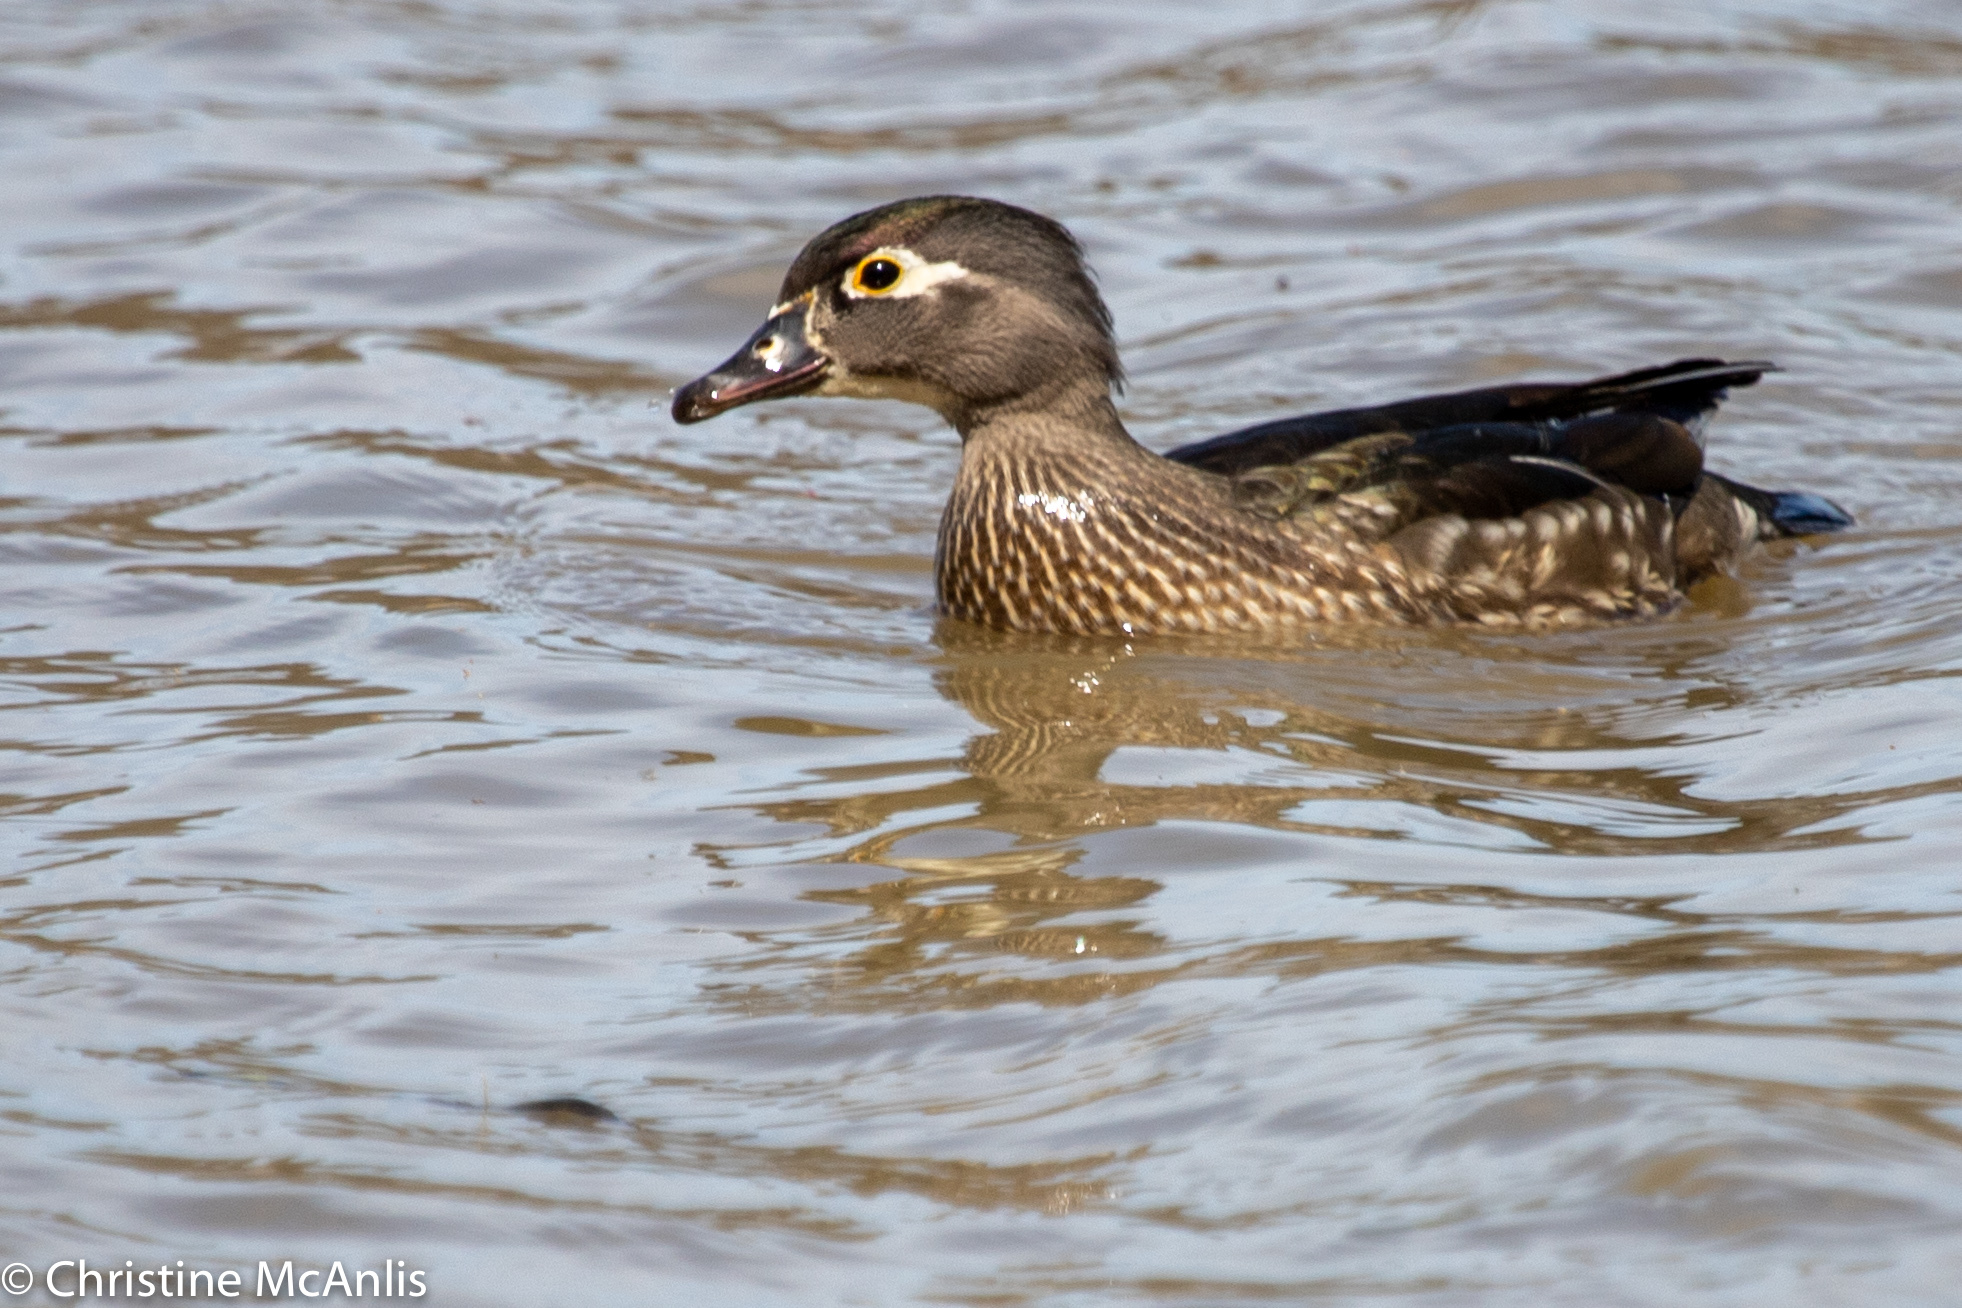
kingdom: Animalia
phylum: Chordata
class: Aves
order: Anseriformes
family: Anatidae
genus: Aix
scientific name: Aix sponsa
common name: Wood duck
